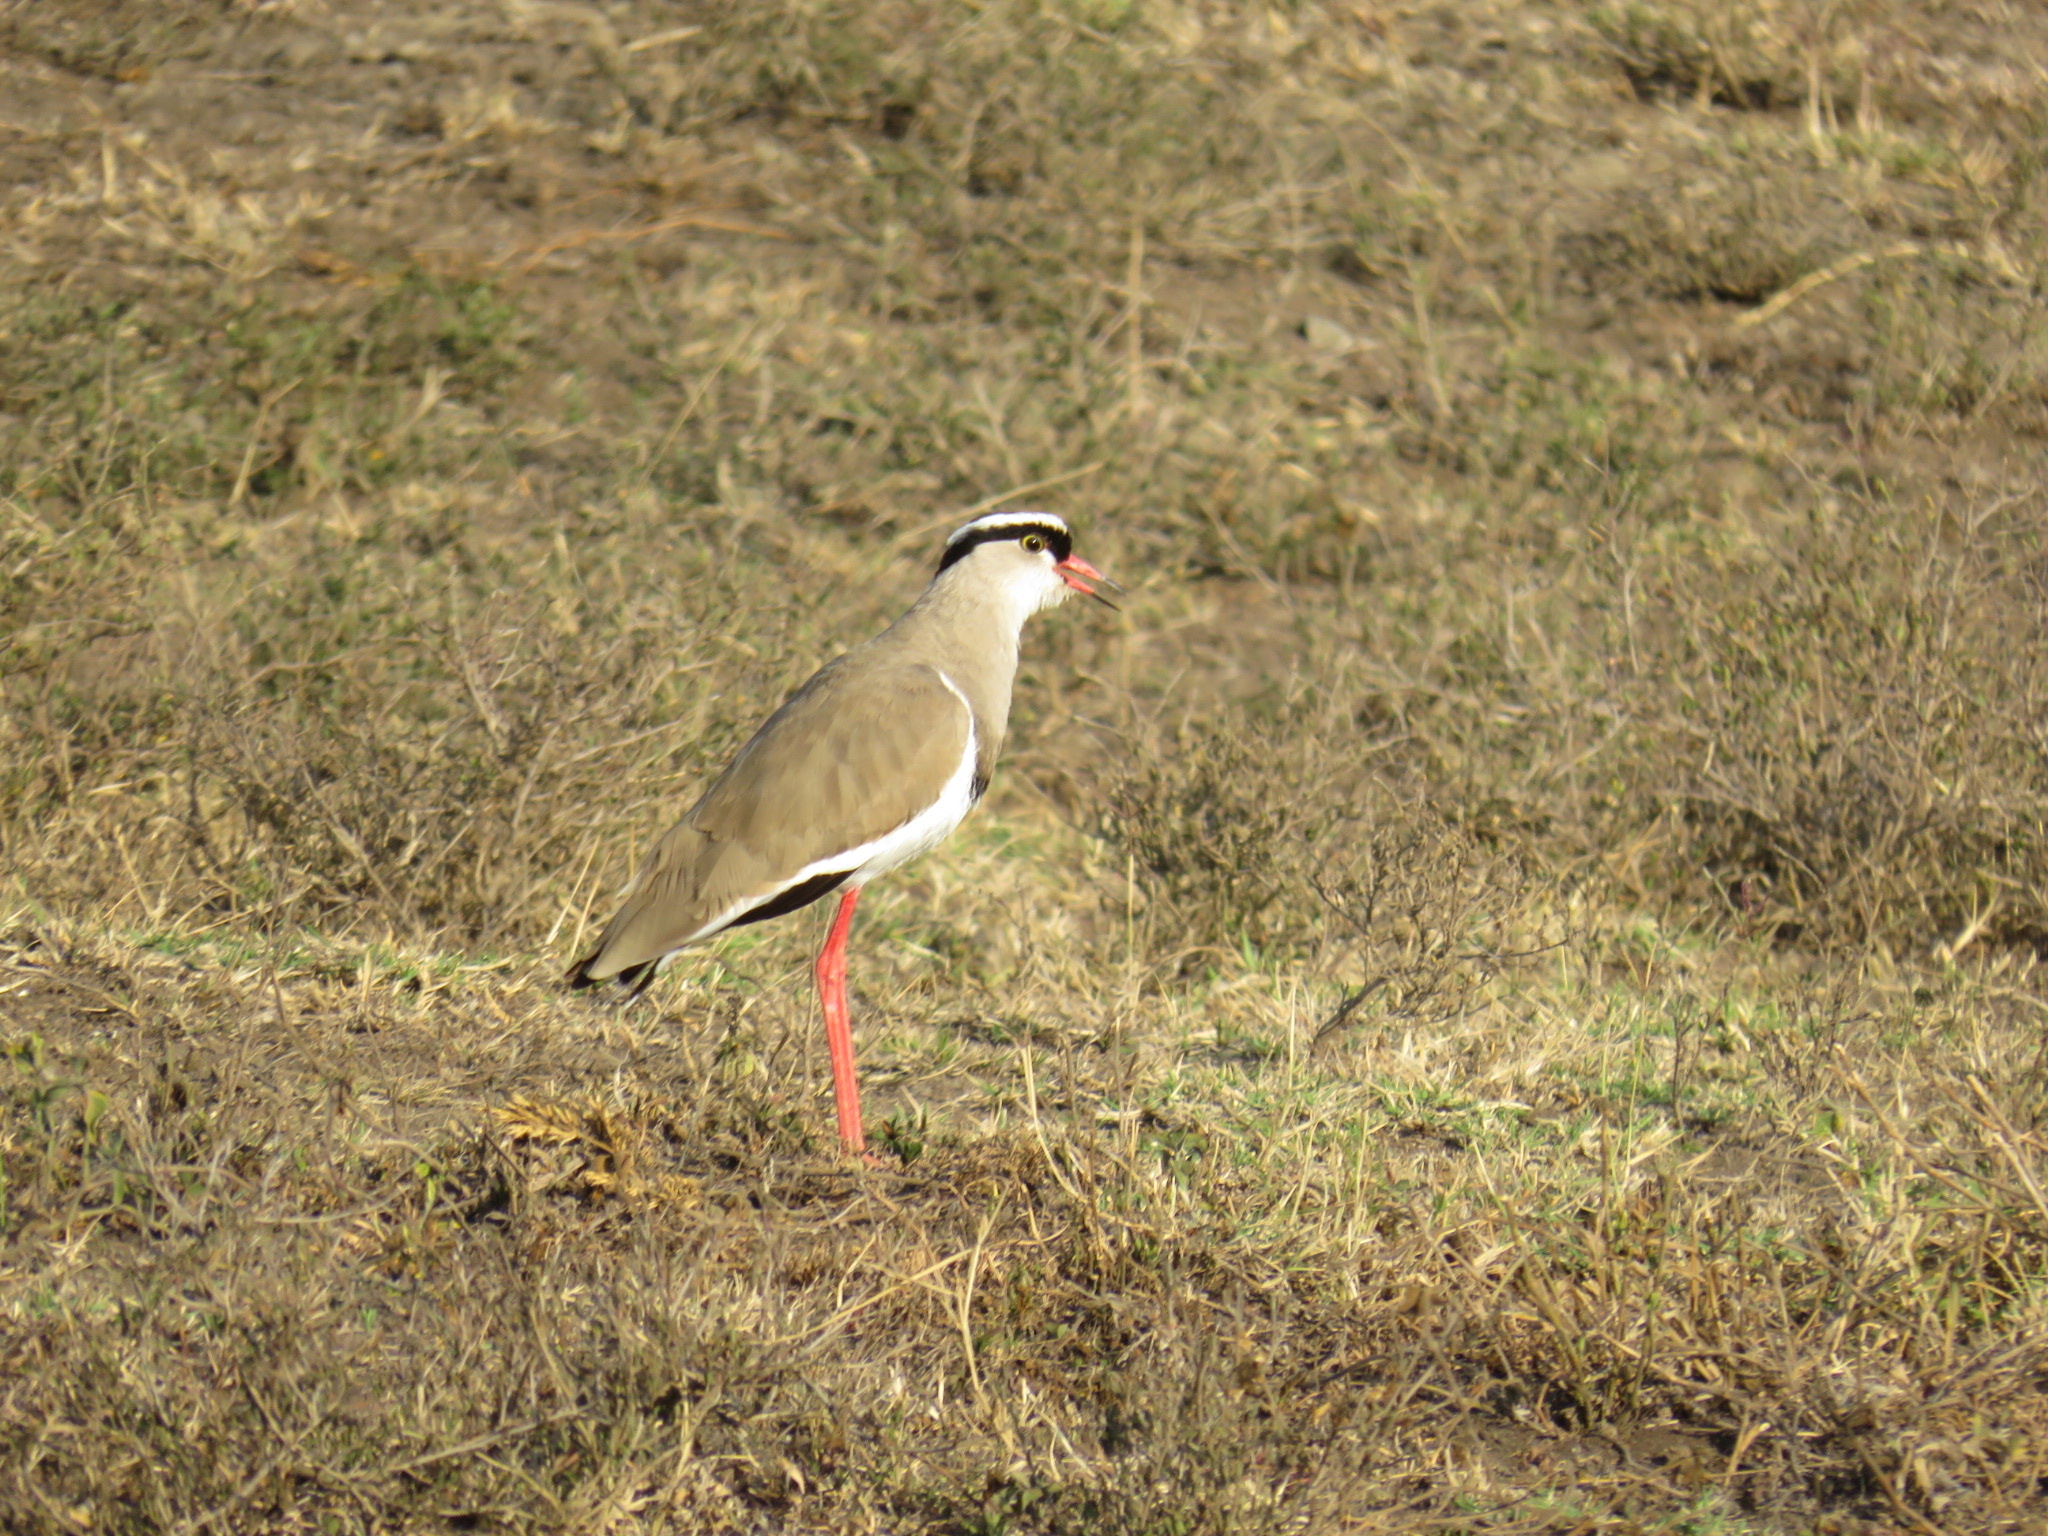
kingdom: Animalia
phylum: Chordata
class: Aves
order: Charadriiformes
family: Charadriidae
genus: Vanellus
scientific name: Vanellus coronatus
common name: Crowned lapwing
